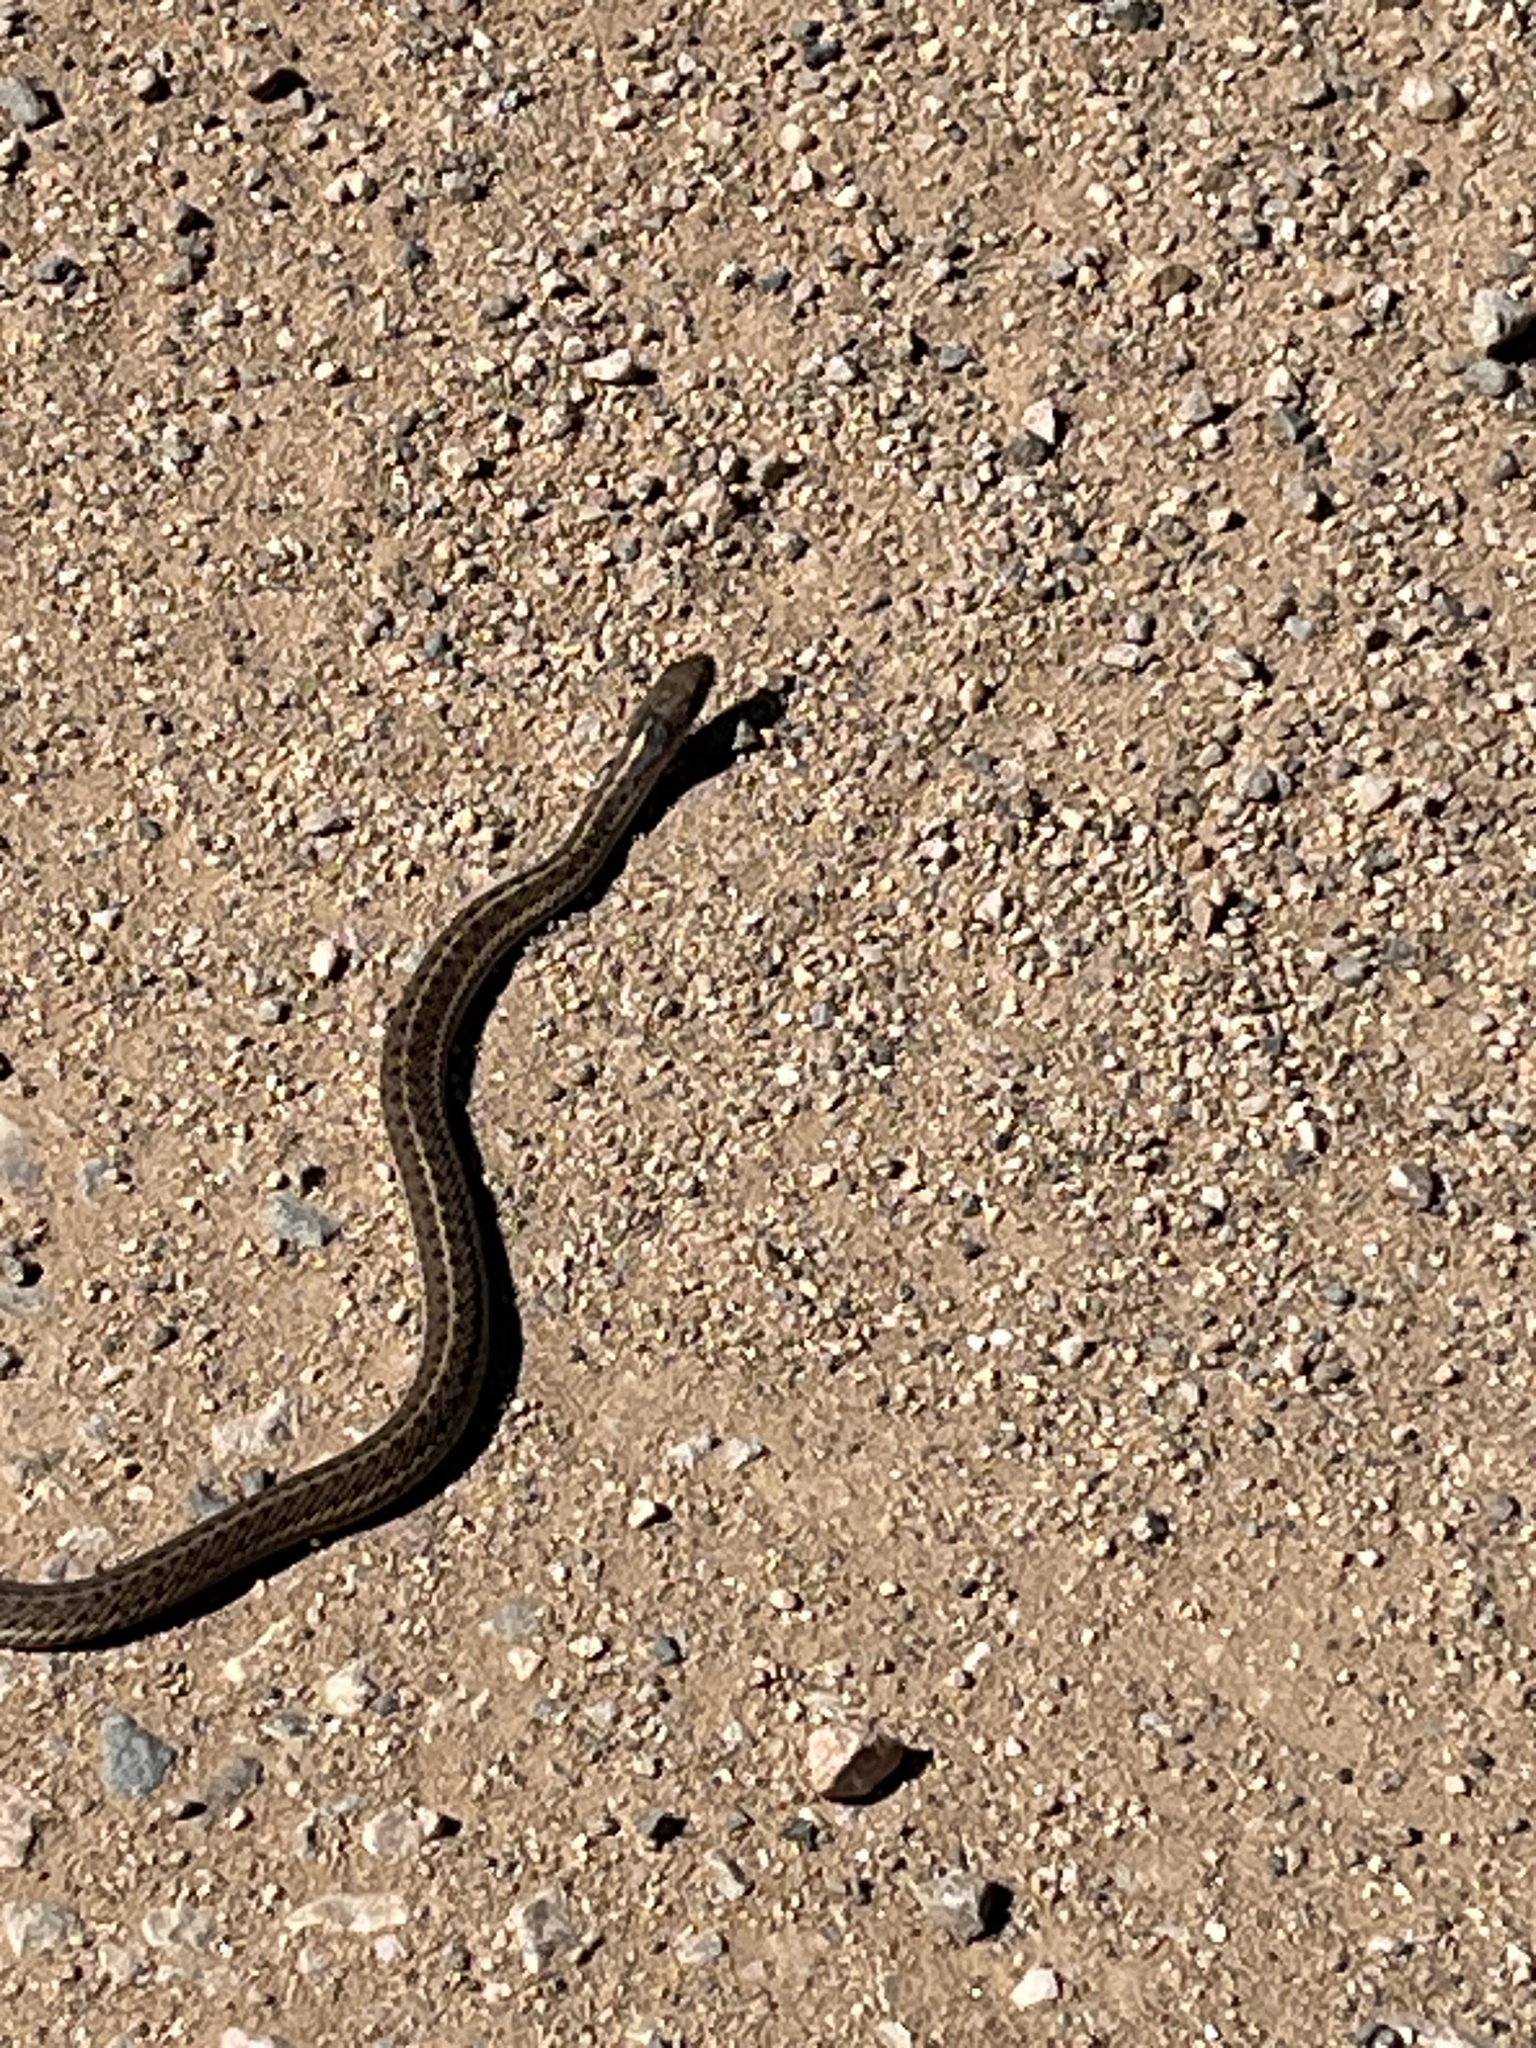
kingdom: Animalia
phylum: Chordata
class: Squamata
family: Colubridae
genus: Thamnophis
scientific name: Thamnophis elegans
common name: Western terrestrial garter snake
